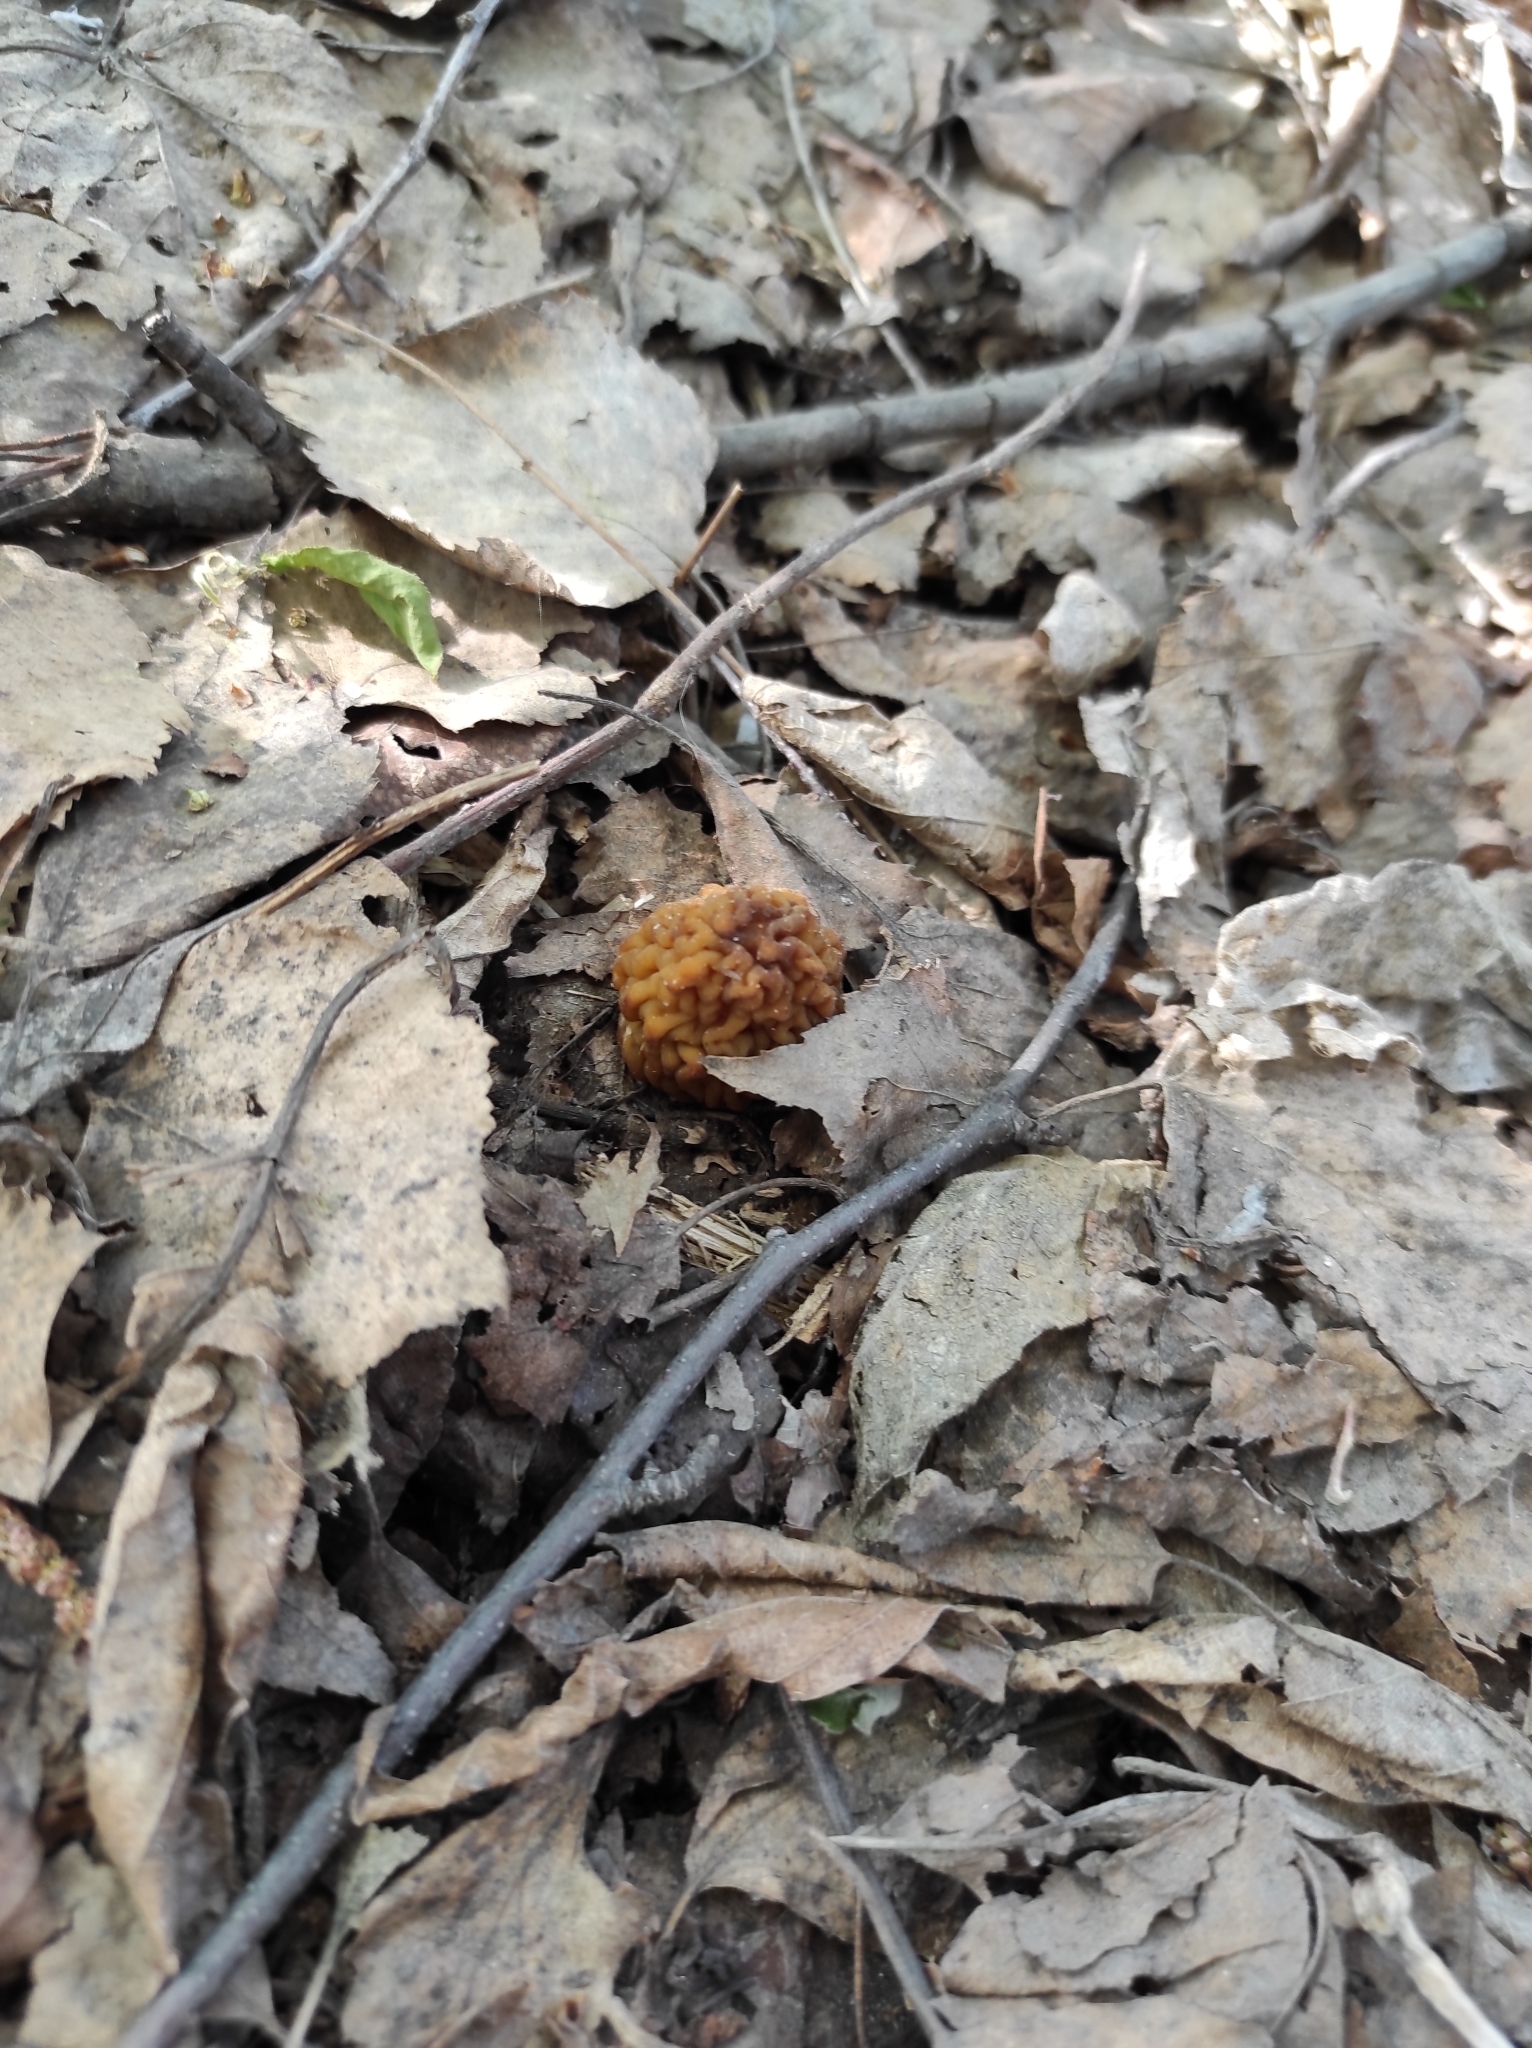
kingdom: Fungi
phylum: Ascomycota
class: Pezizomycetes
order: Pezizales
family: Morchellaceae
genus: Verpa
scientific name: Verpa bohemica
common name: Wrinkled thimble morel
